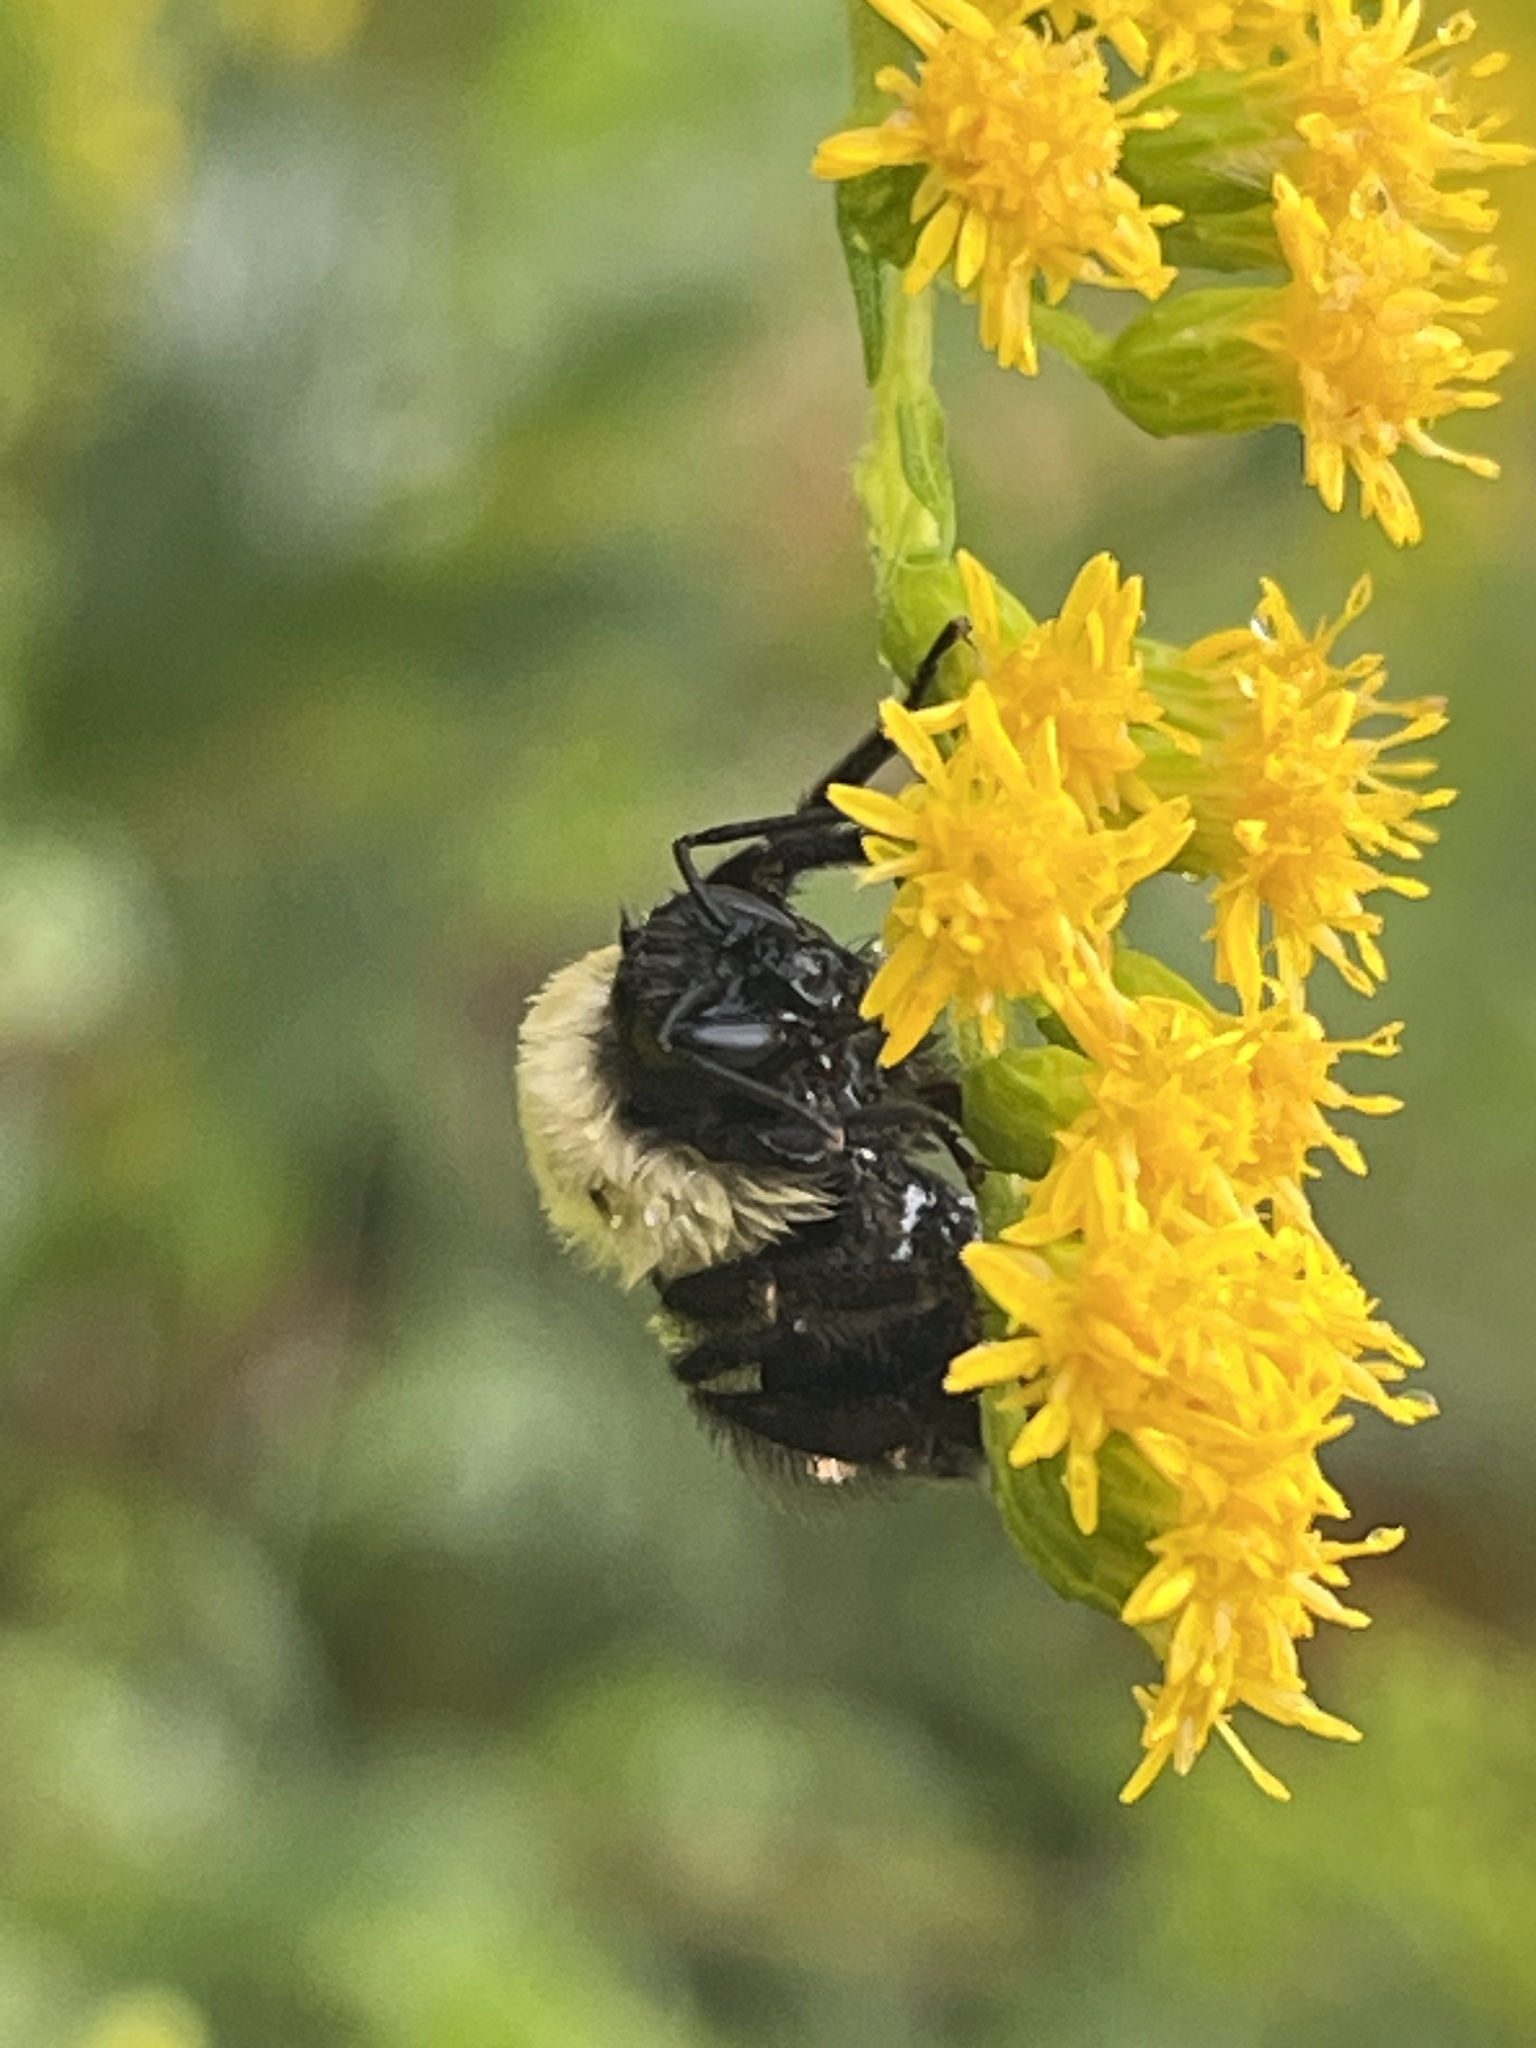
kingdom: Animalia
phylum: Arthropoda
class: Insecta
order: Hymenoptera
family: Apidae
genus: Bombus
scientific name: Bombus impatiens
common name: Common eastern bumble bee
